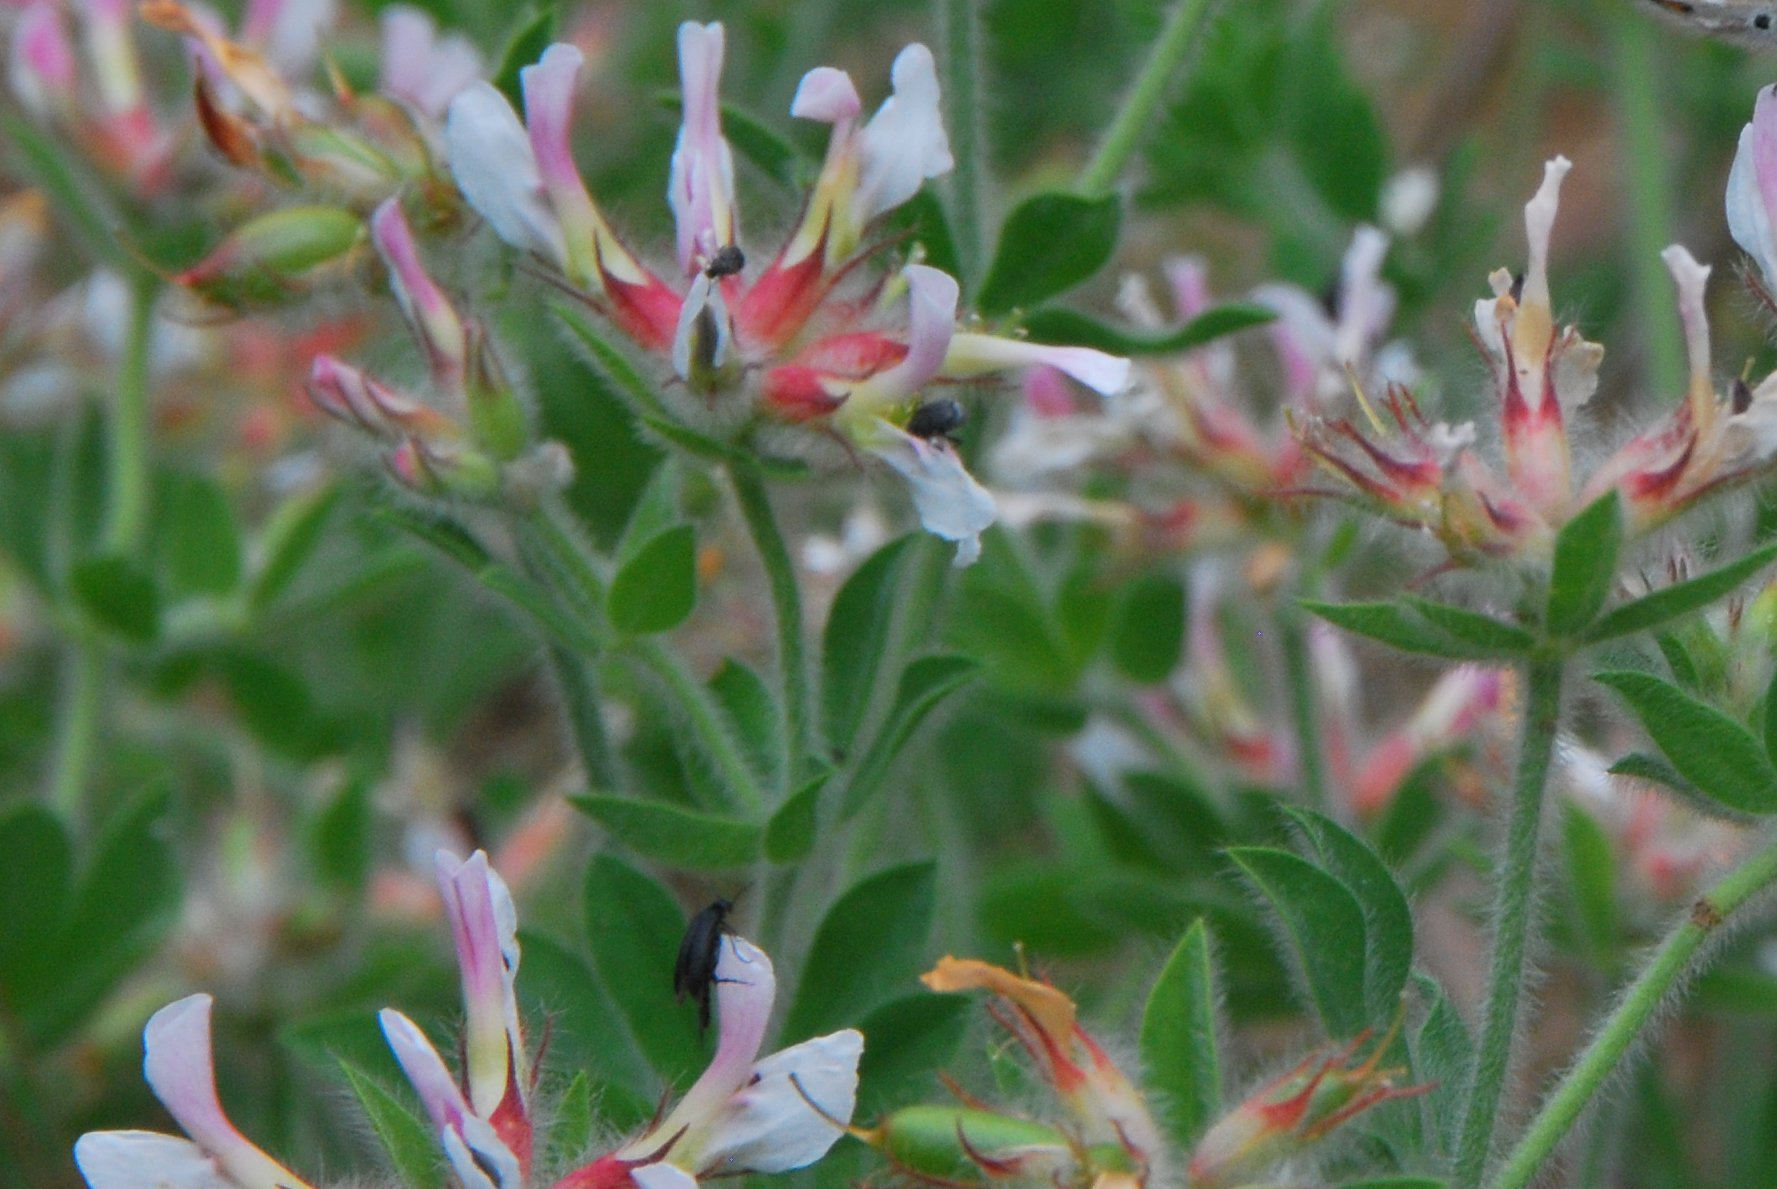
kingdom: Plantae
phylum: Tracheophyta
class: Magnoliopsida
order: Fabales
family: Fabaceae
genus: Lotus
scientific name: Lotus hirsutus
